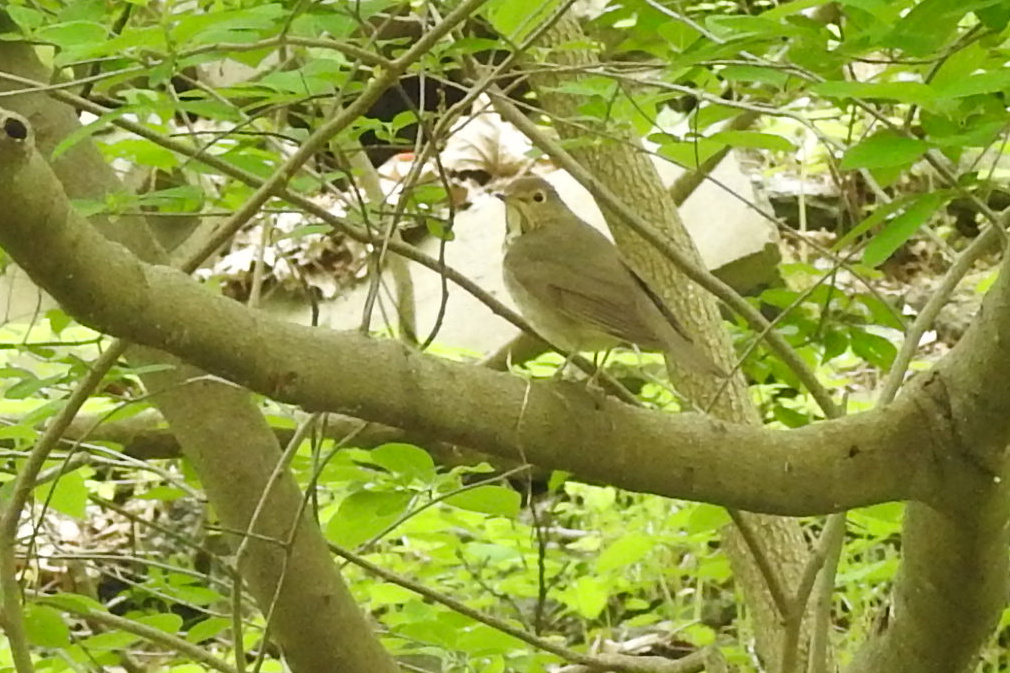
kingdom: Animalia
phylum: Chordata
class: Aves
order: Passeriformes
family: Turdidae
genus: Catharus
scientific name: Catharus ustulatus
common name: Swainson's thrush
